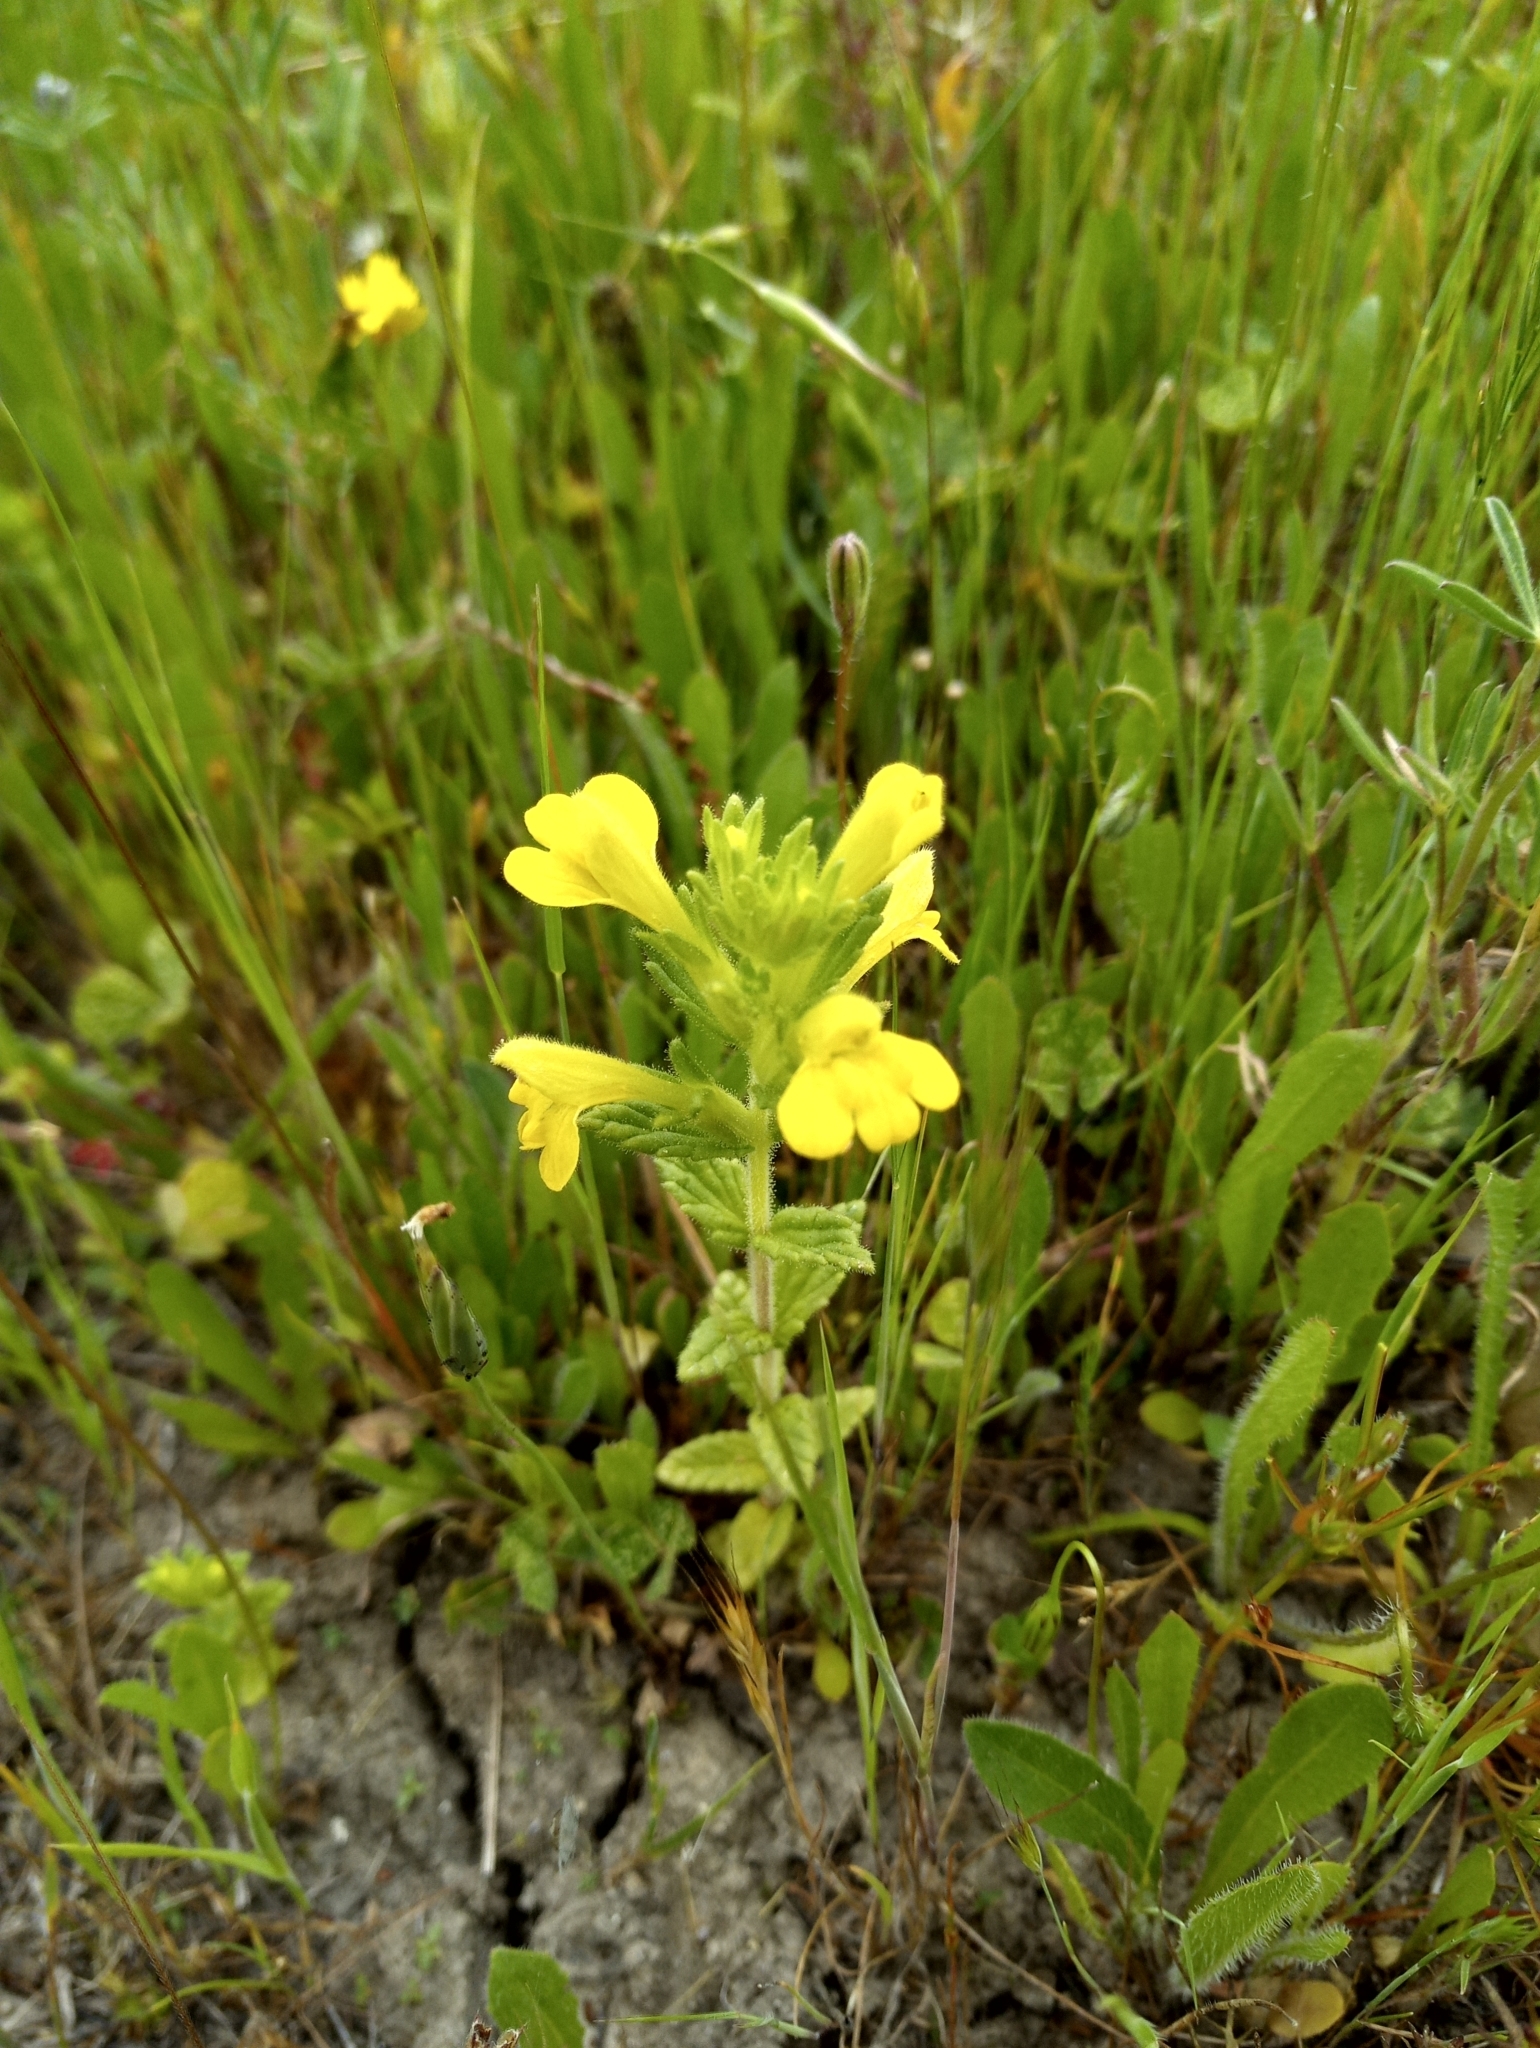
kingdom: Plantae
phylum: Tracheophyta
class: Magnoliopsida
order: Lamiales
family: Orobanchaceae
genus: Bellardia
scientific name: Bellardia viscosa
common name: Sticky parentucellia
